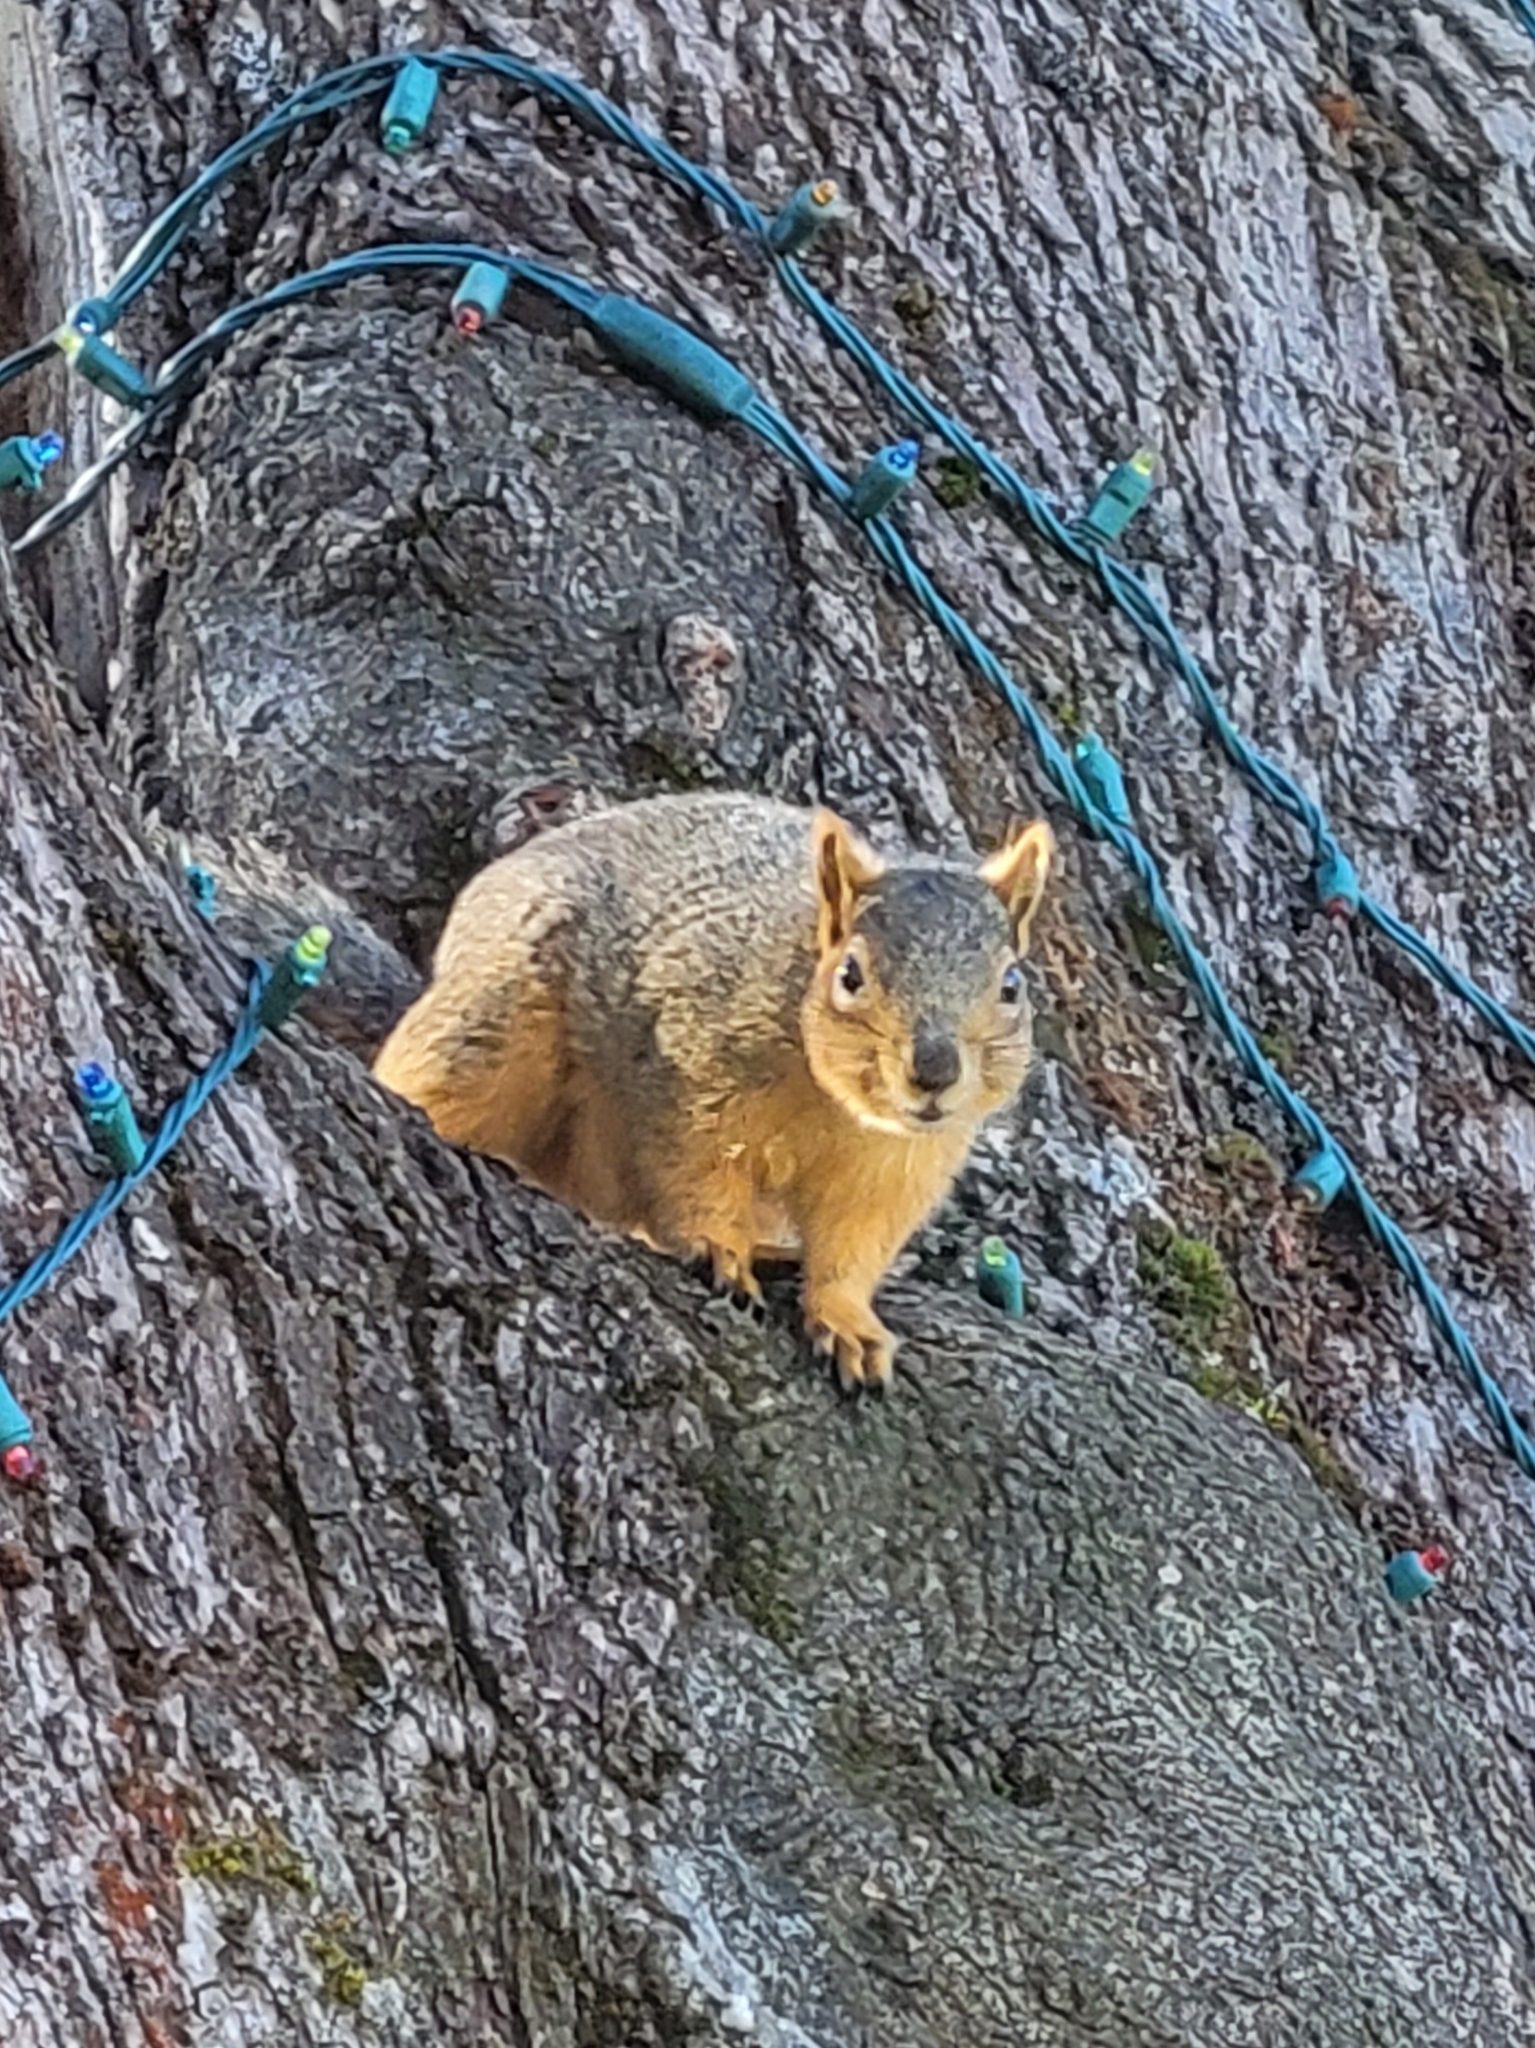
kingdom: Animalia
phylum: Chordata
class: Mammalia
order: Rodentia
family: Sciuridae
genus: Sciurus
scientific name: Sciurus niger
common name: Fox squirrel
